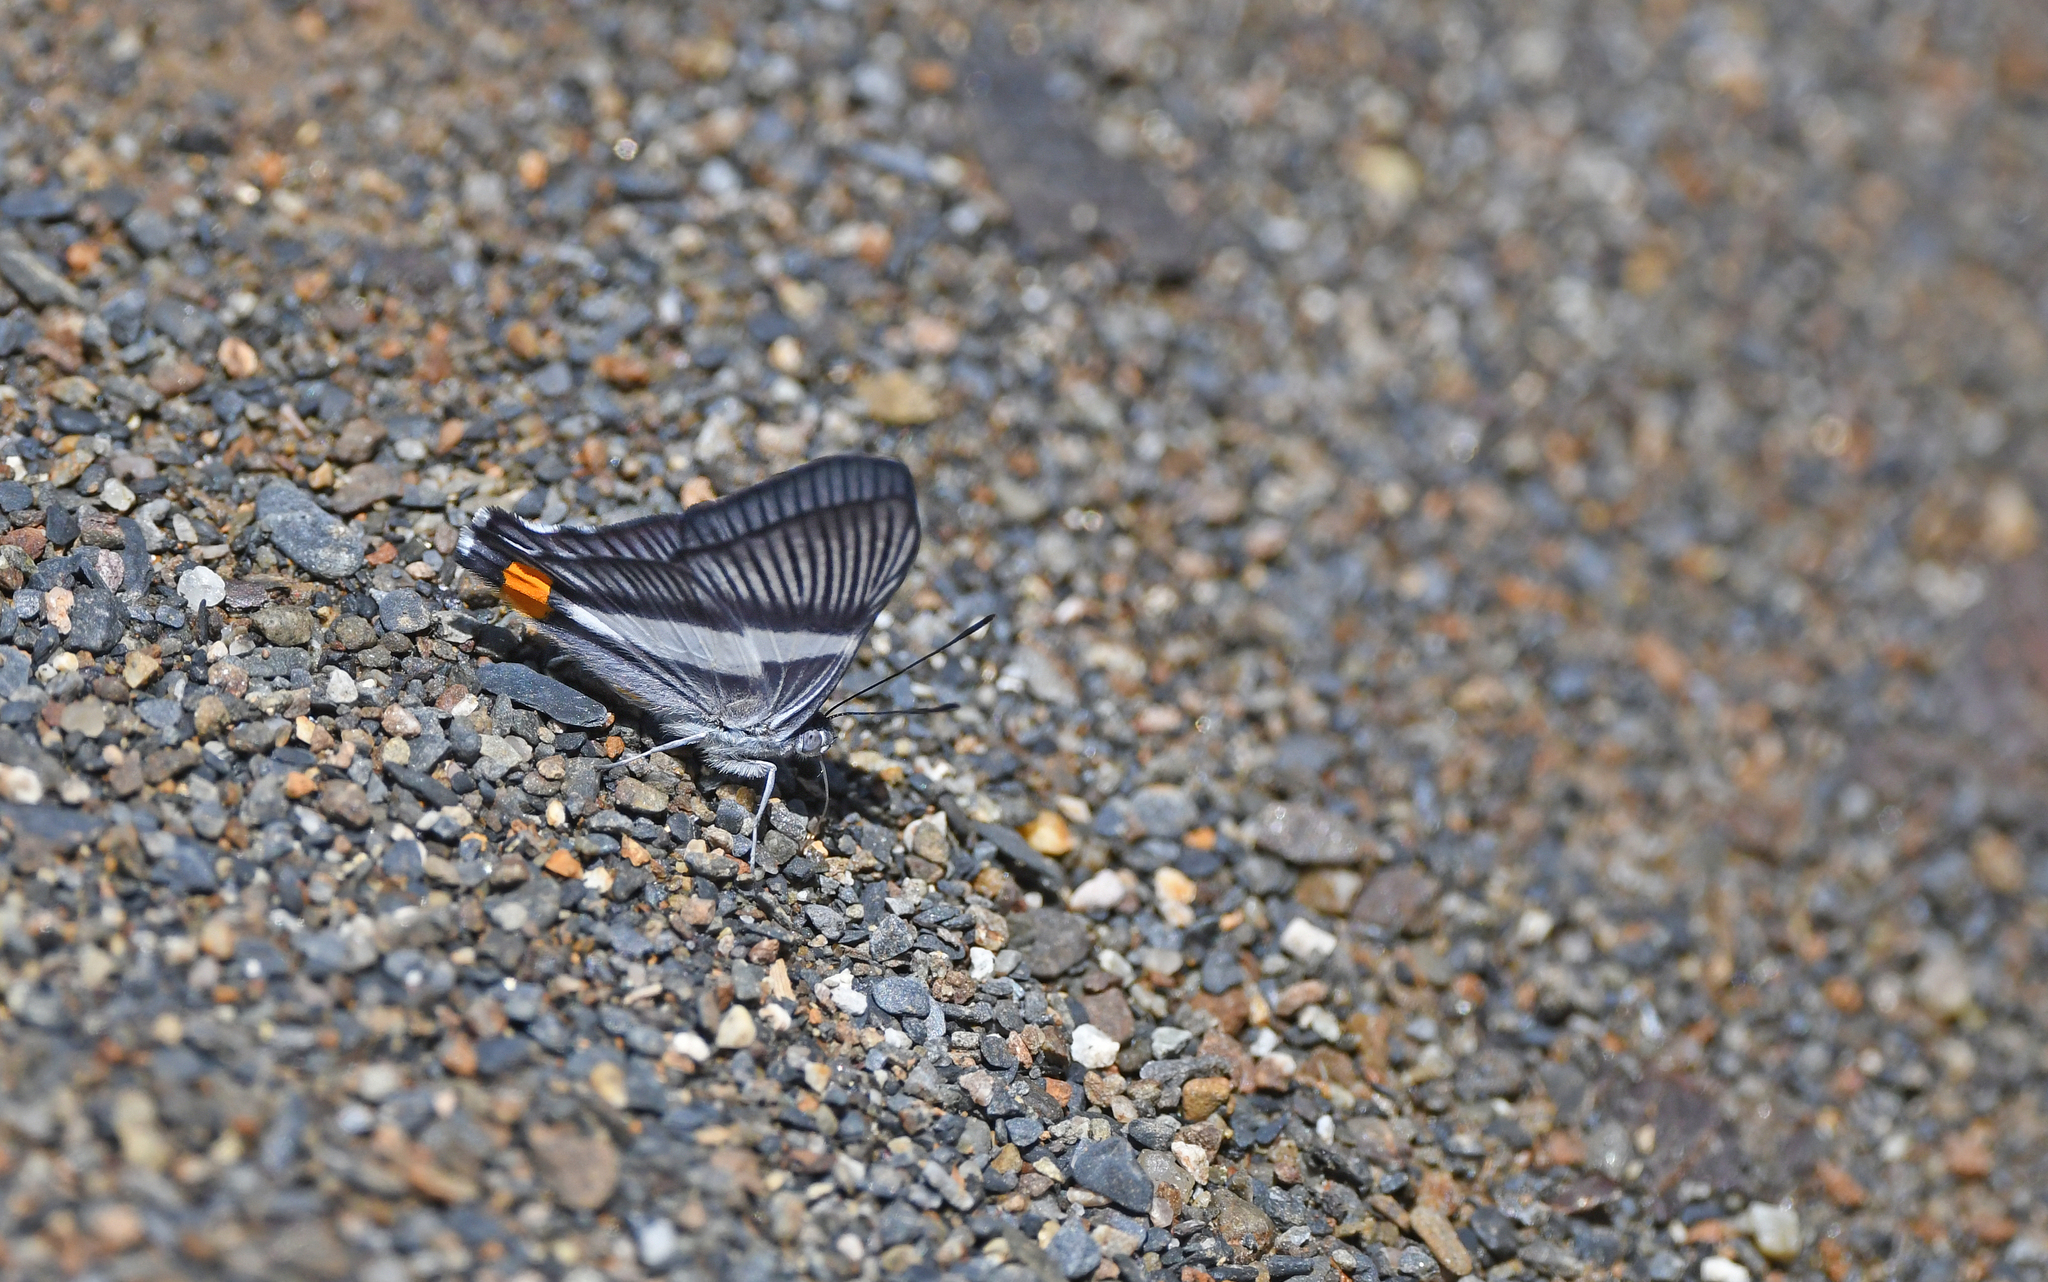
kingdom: Animalia
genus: Siseme
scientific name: Siseme neurodes
